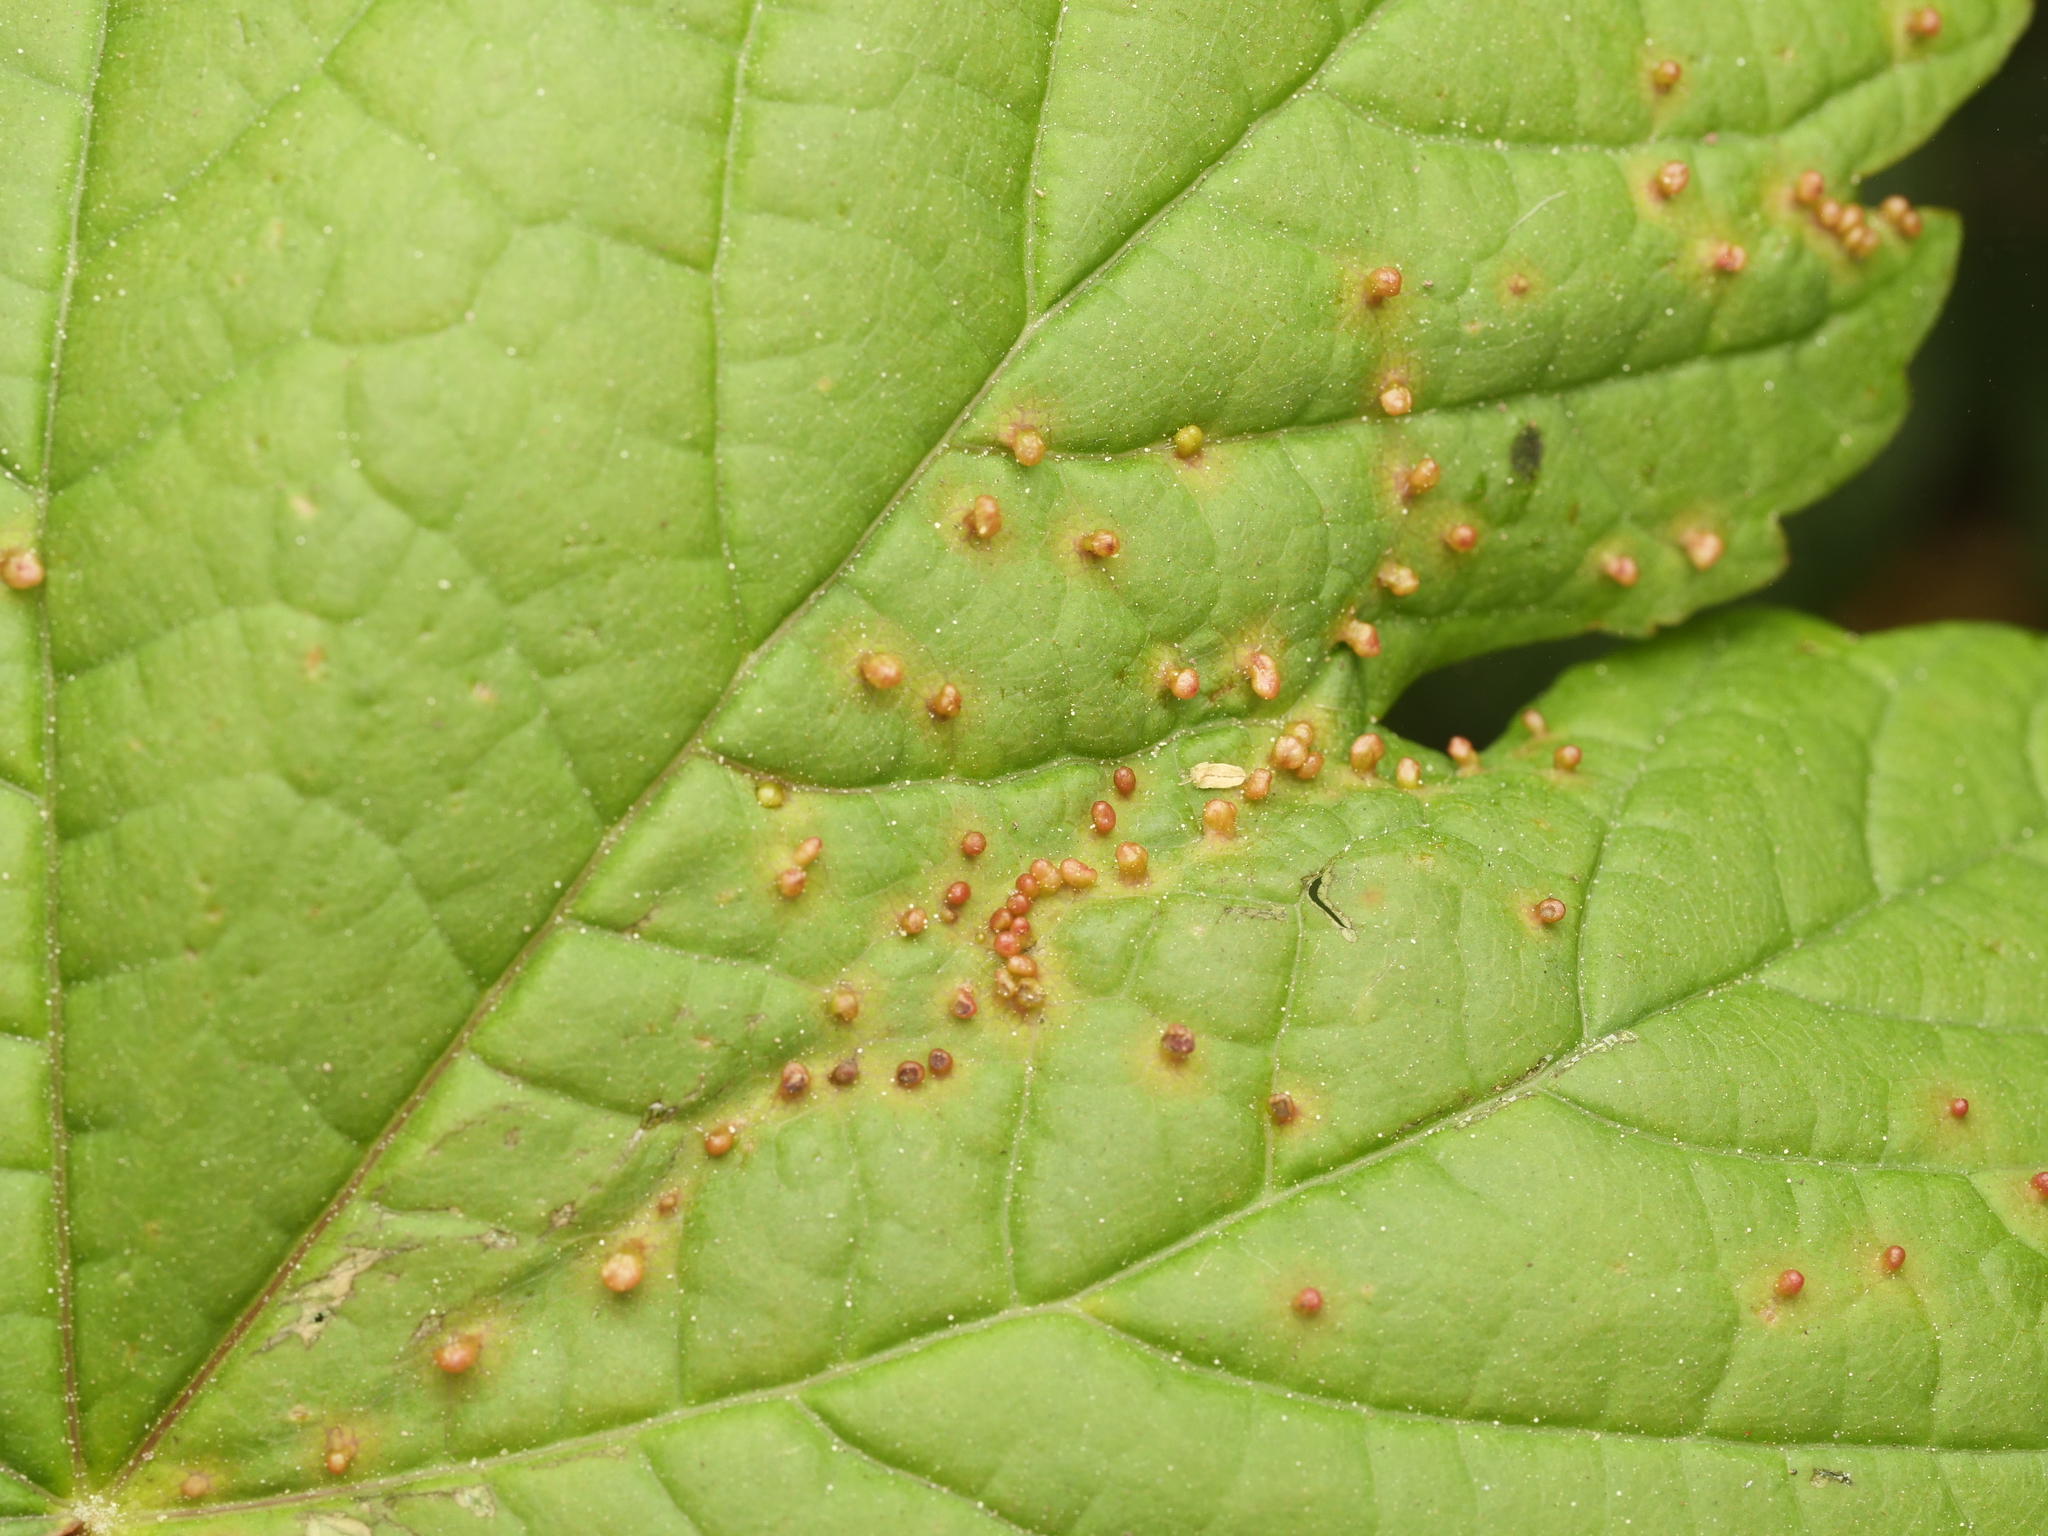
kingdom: Animalia
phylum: Arthropoda
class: Arachnida
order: Trombidiformes
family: Eriophyidae
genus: Aceria
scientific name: Aceria cephaloneus
